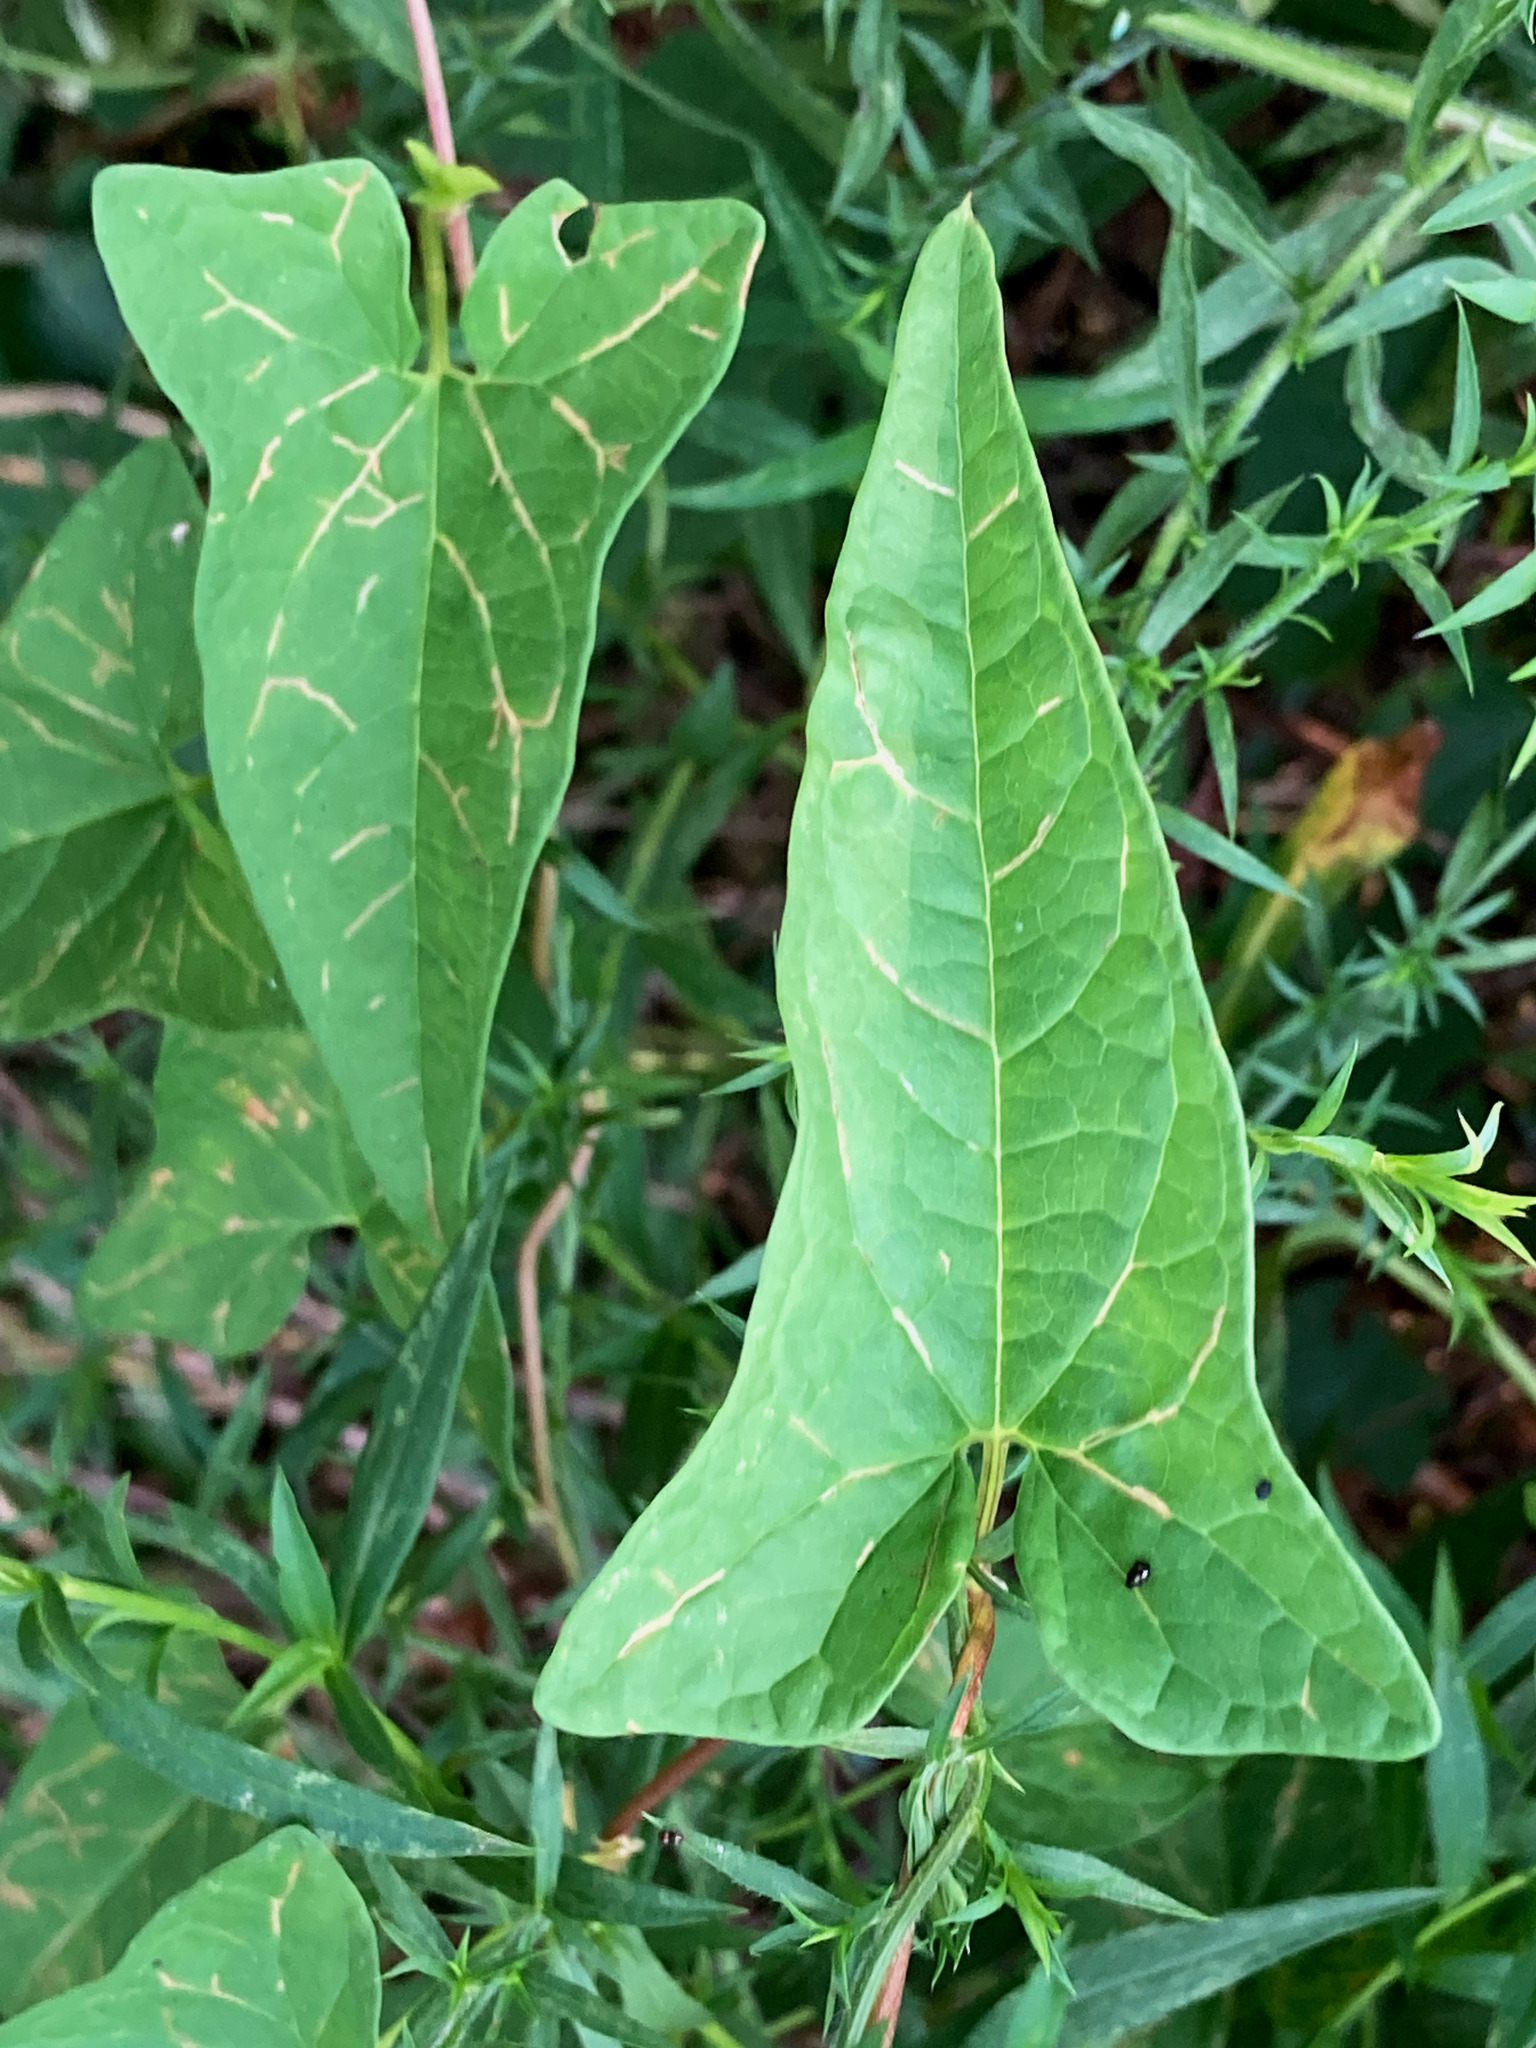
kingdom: Plantae
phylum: Tracheophyta
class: Magnoliopsida
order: Solanales
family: Convolvulaceae
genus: Calystegia
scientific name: Calystegia sepium
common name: Hedge bindweed
